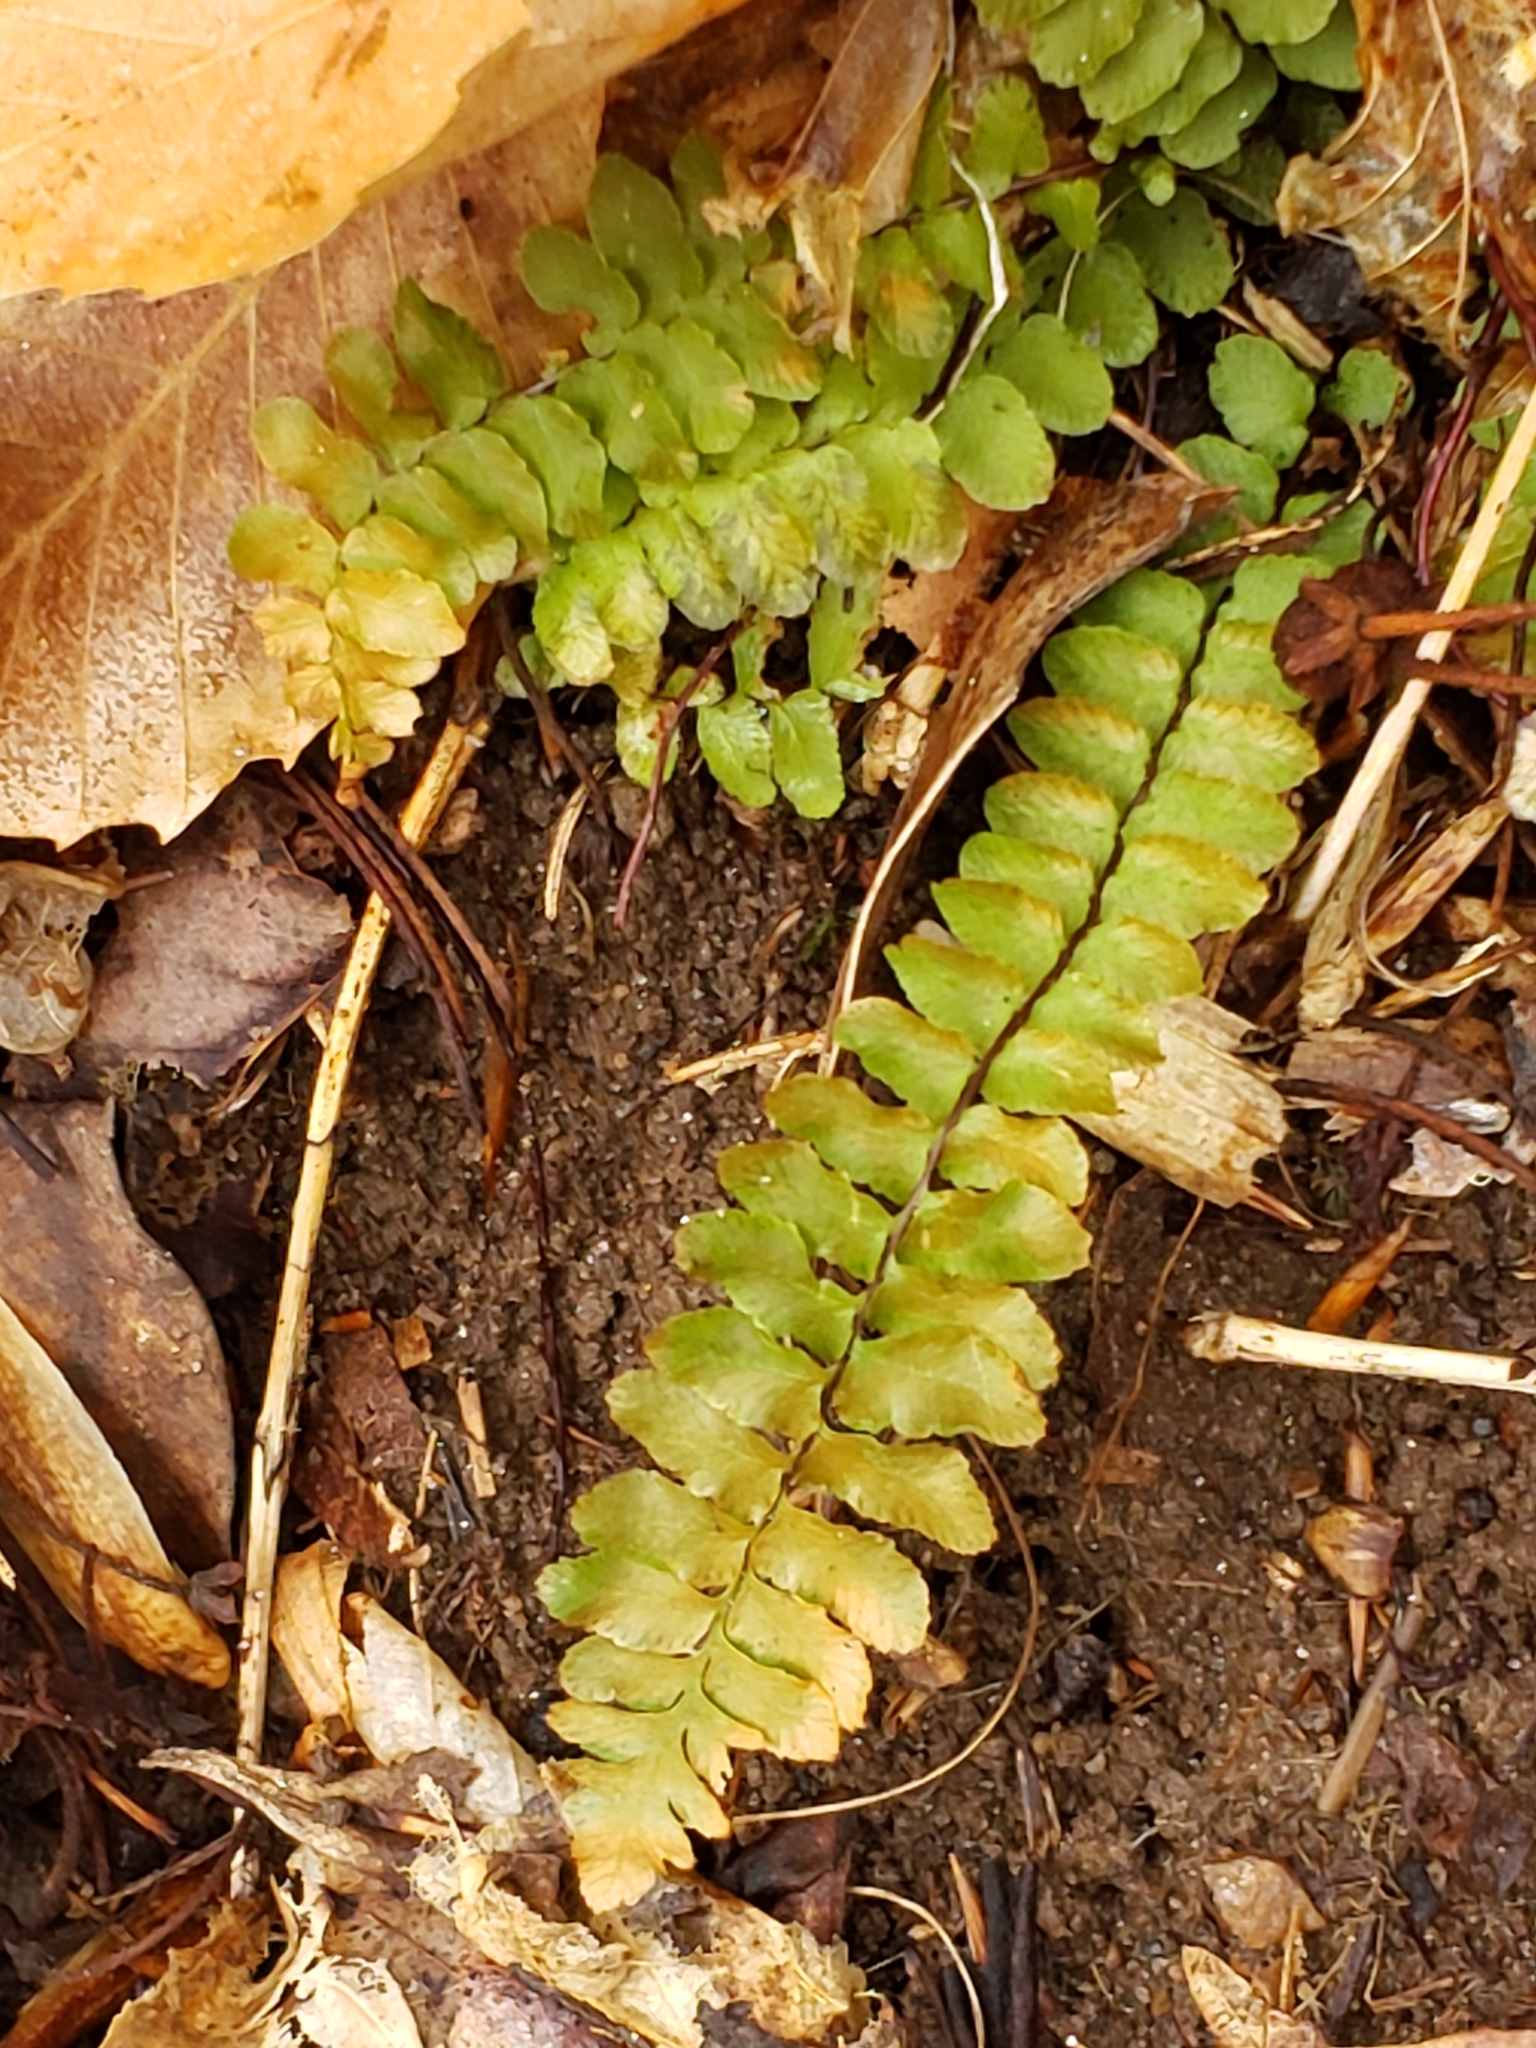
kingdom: Plantae
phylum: Tracheophyta
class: Polypodiopsida
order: Polypodiales
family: Aspleniaceae
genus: Asplenium
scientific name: Asplenium platyneuron
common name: Ebony spleenwort
